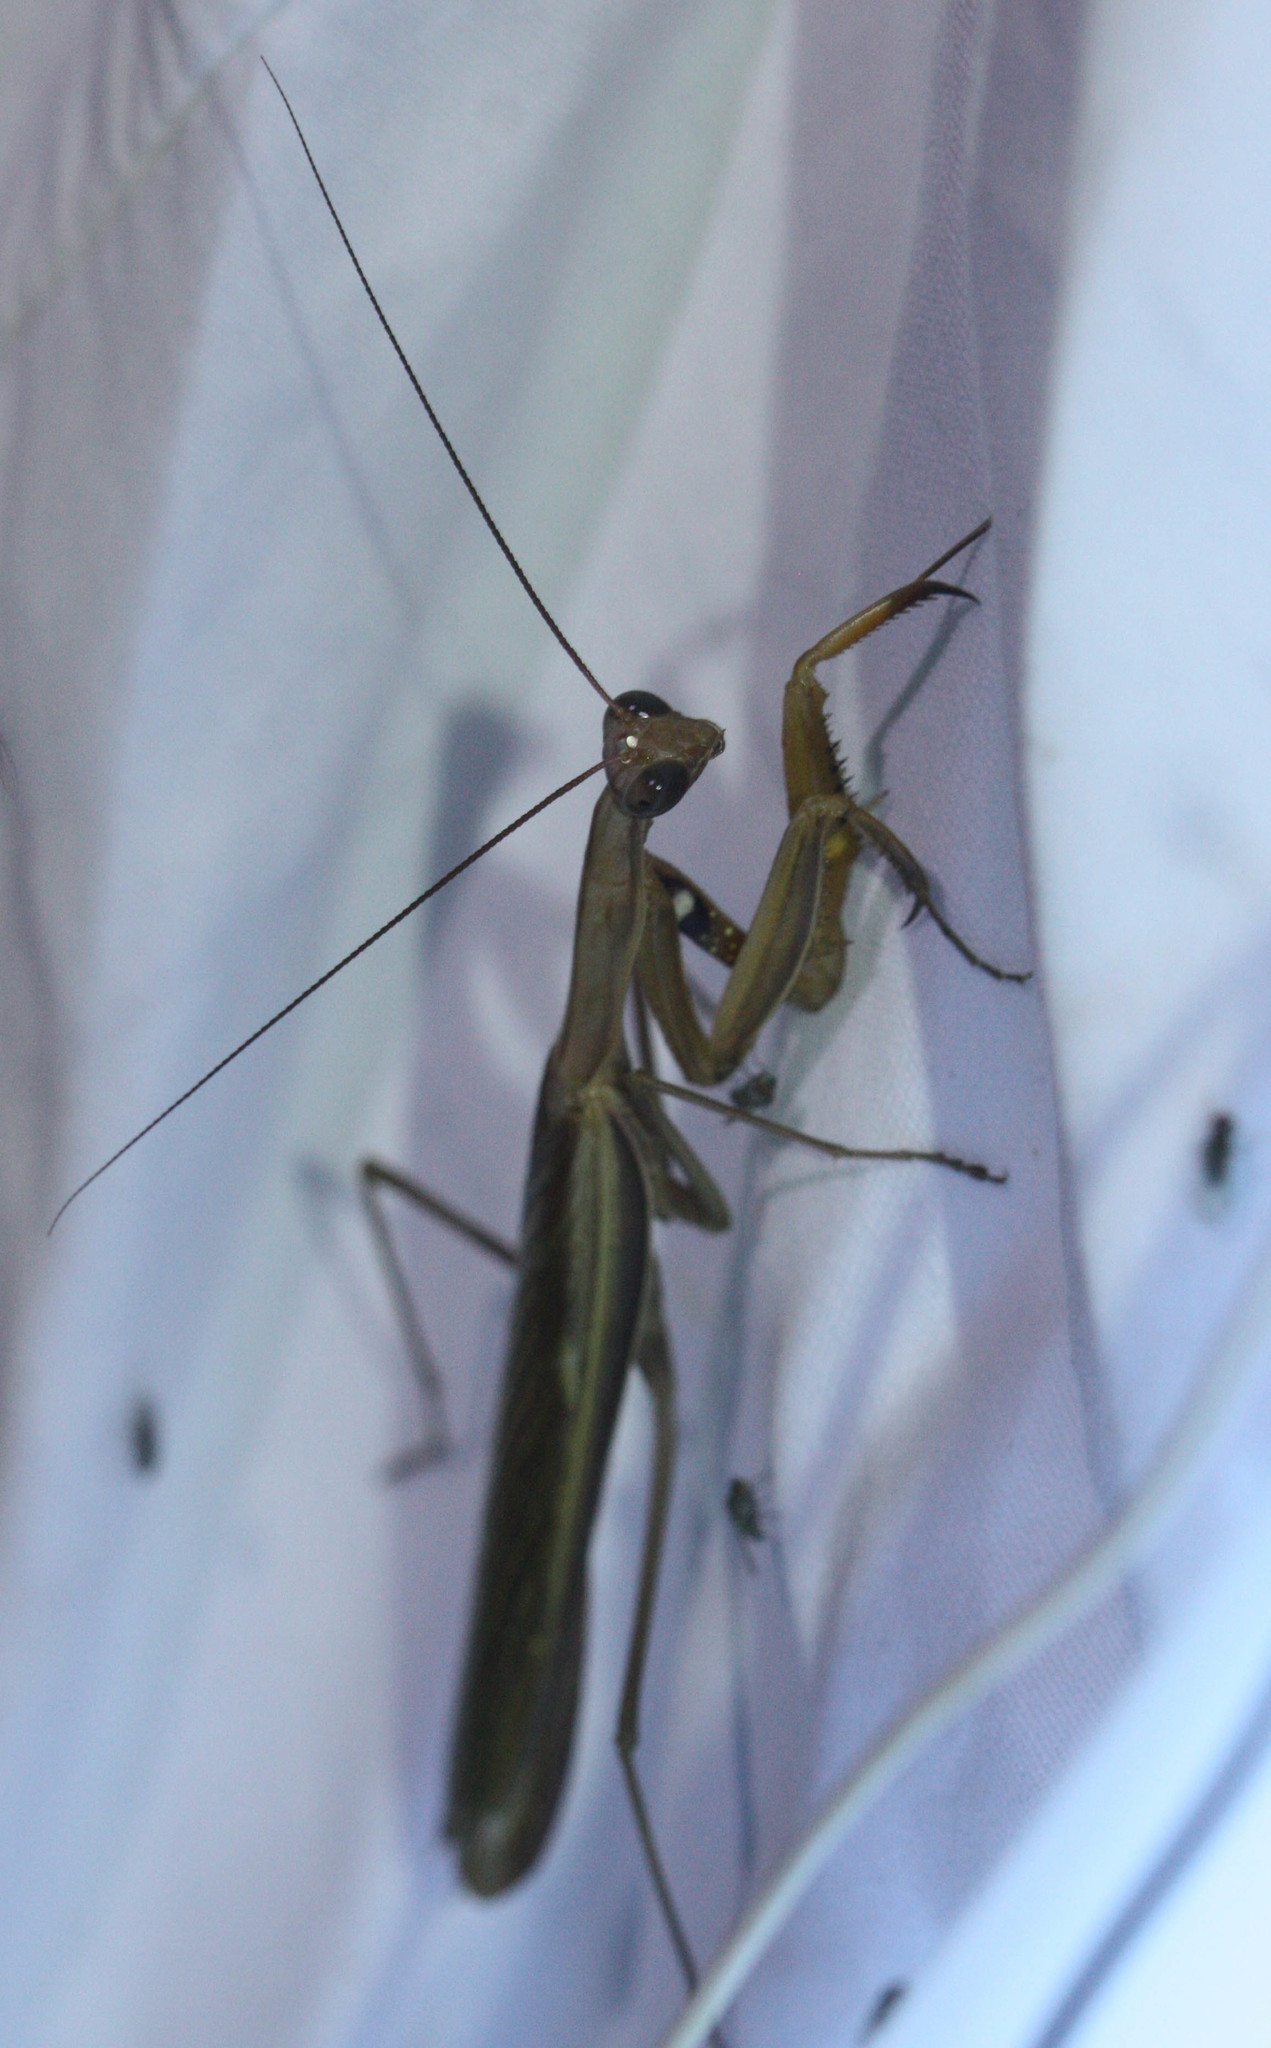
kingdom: Animalia
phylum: Arthropoda
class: Insecta
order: Mantodea
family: Mantidae
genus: Mantis
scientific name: Mantis religiosa
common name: Praying mantis
